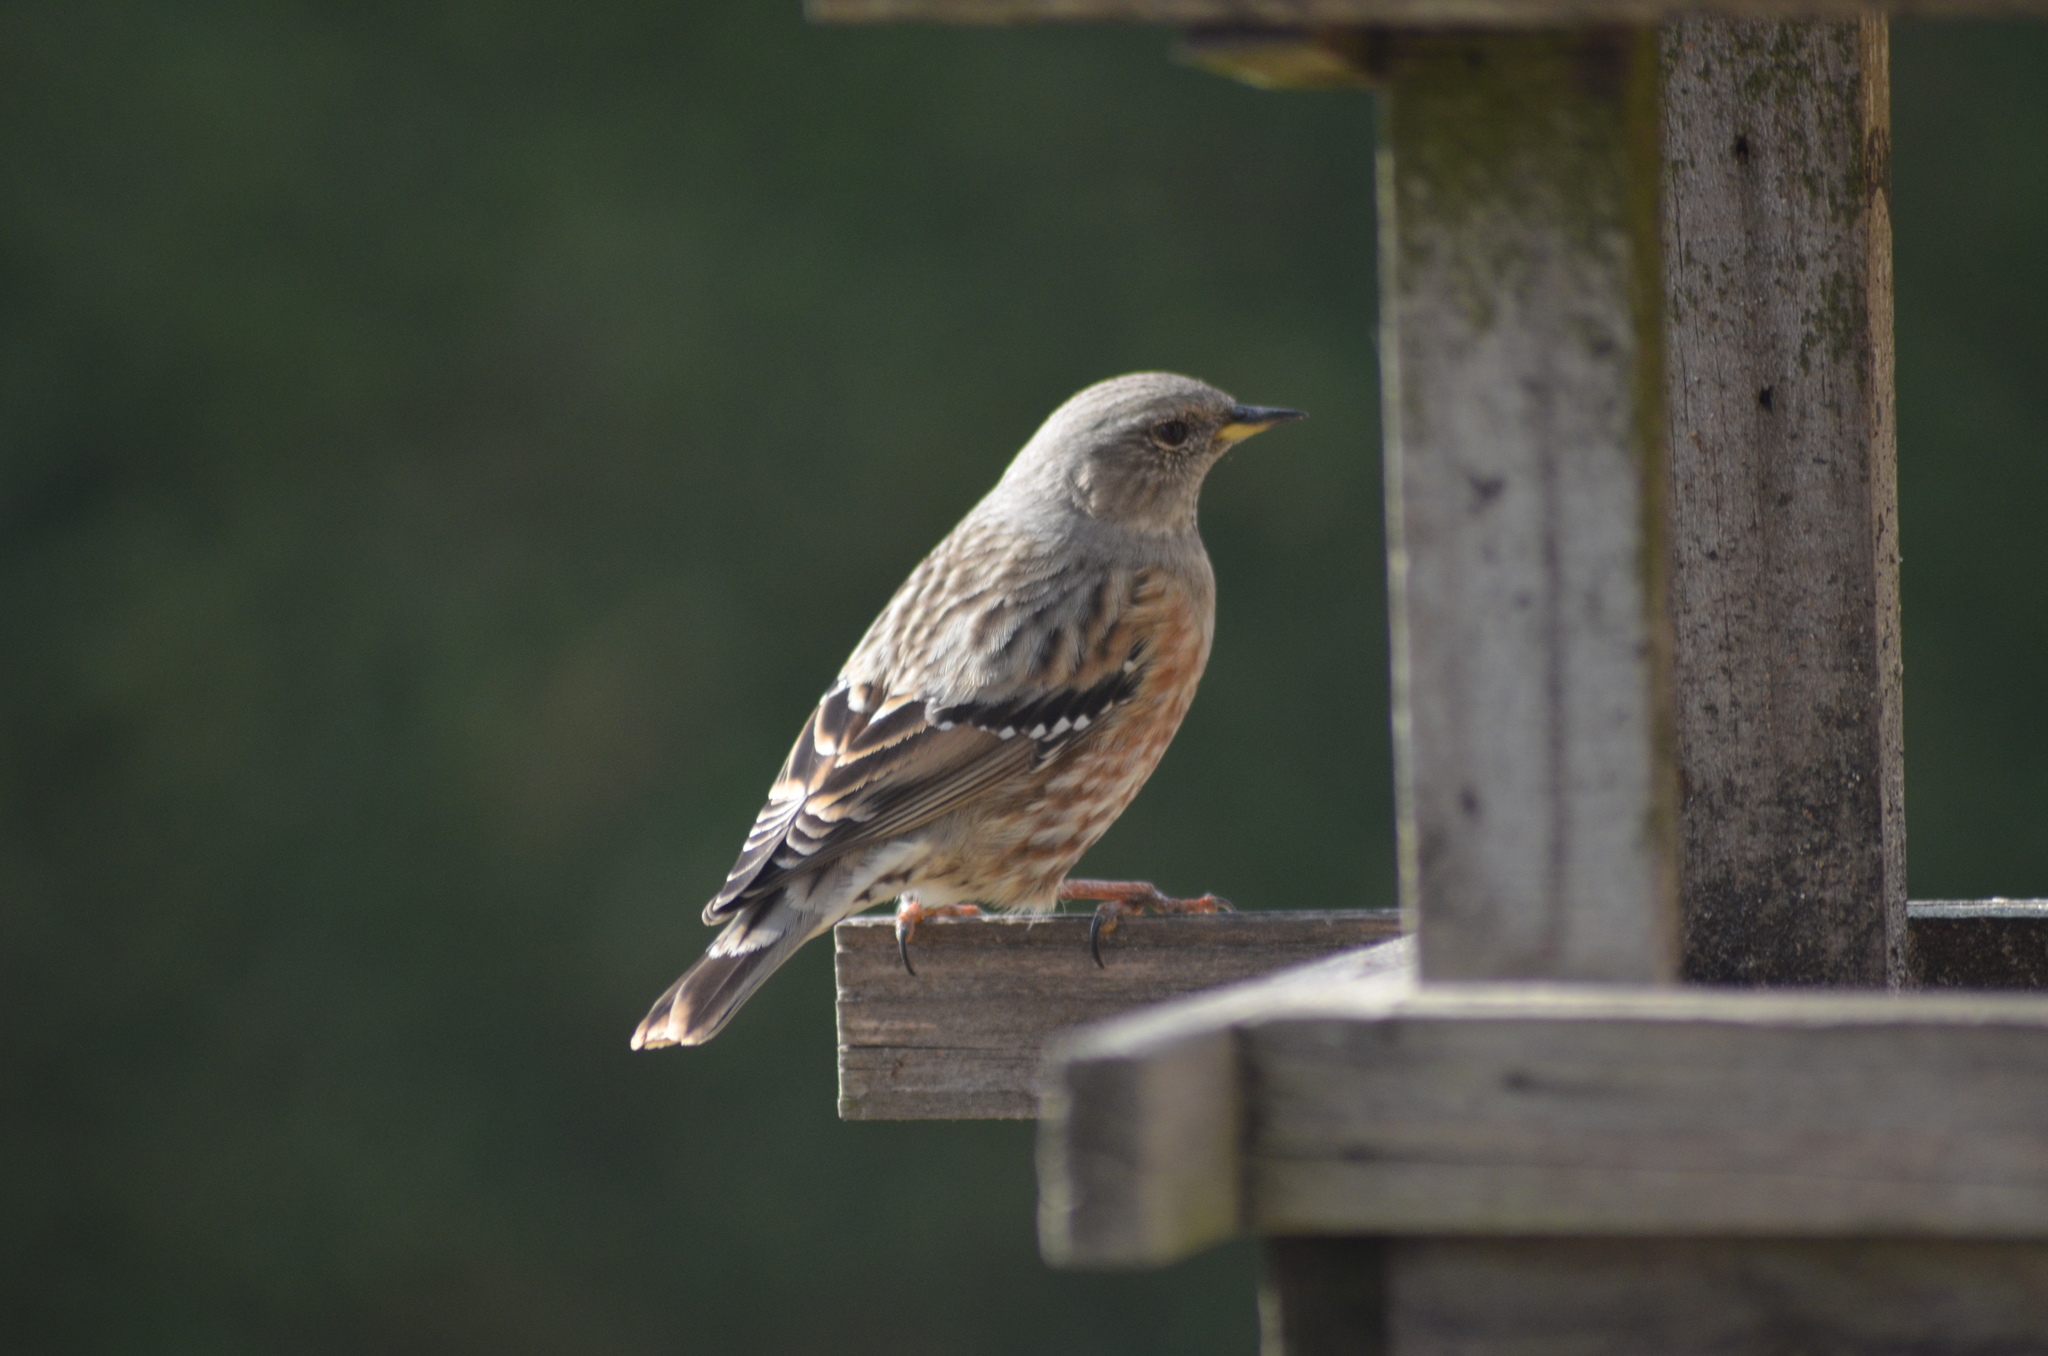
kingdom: Animalia
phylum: Chordata
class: Aves
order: Passeriformes
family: Prunellidae
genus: Prunella
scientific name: Prunella collaris
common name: Alpine accentor
